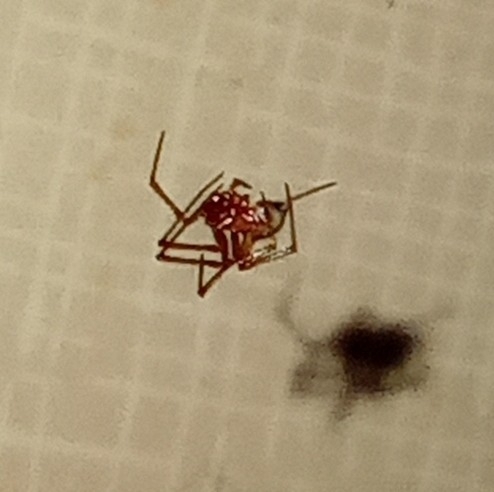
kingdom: Animalia
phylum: Arthropoda
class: Arachnida
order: Araneae
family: Theridiidae
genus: Nesticodes
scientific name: Nesticodes rufipes
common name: Cobweb spiders
